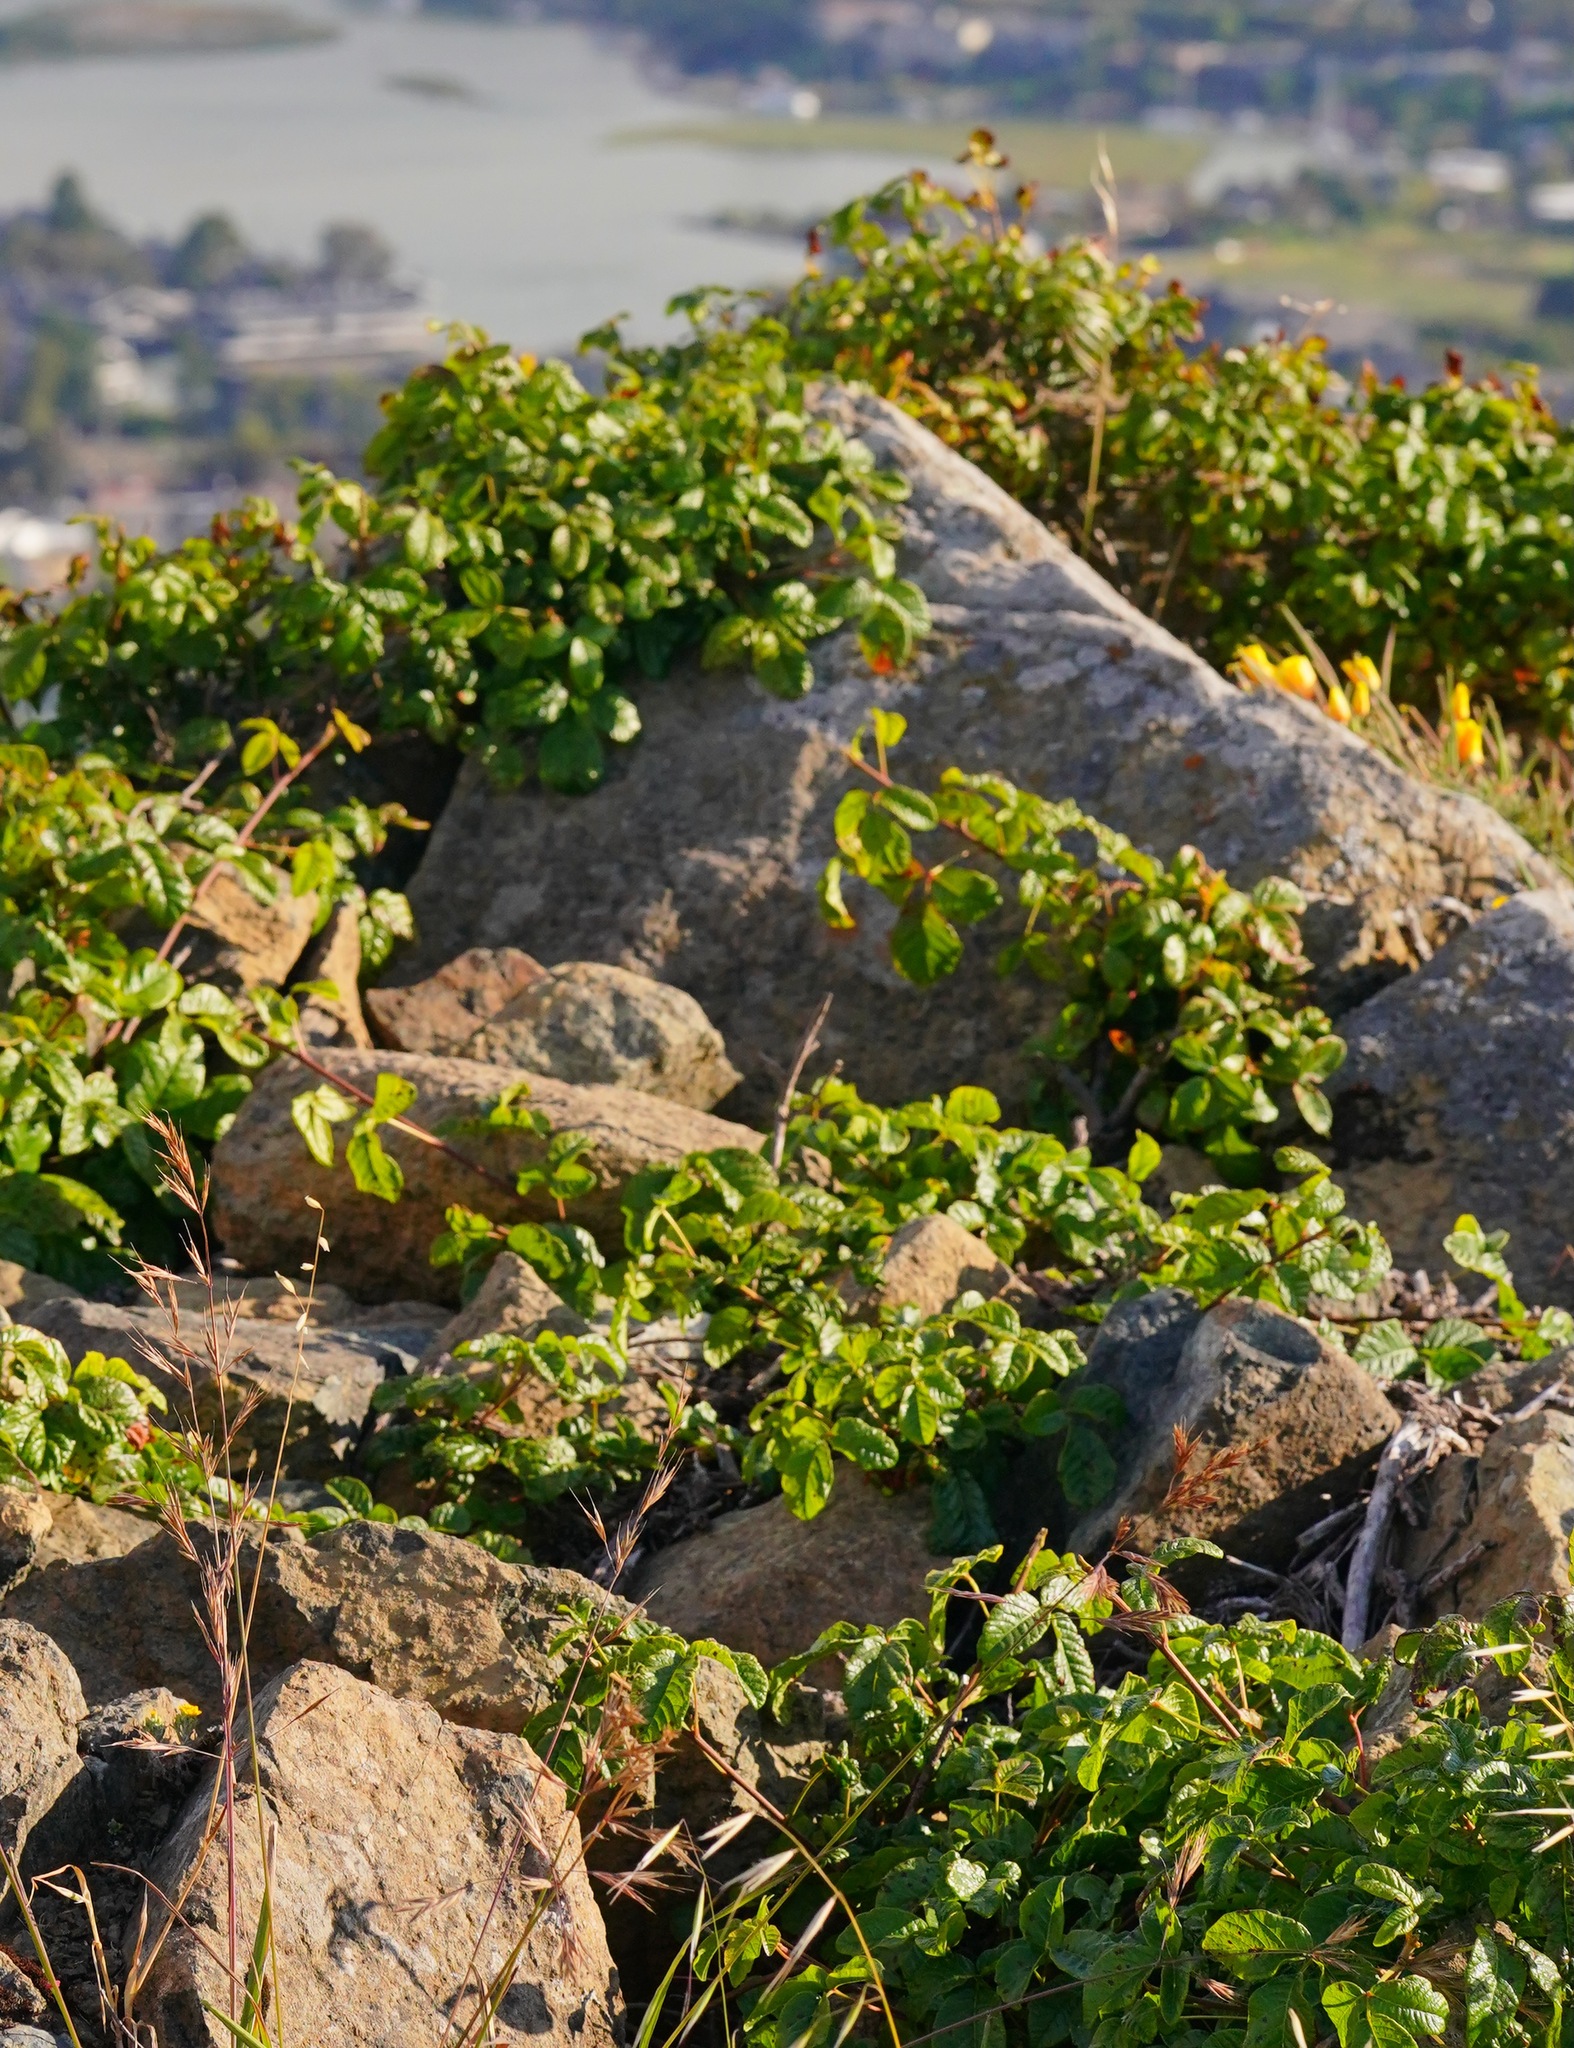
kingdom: Plantae
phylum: Tracheophyta
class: Magnoliopsida
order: Sapindales
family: Anacardiaceae
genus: Toxicodendron
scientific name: Toxicodendron diversilobum
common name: Pacific poison-oak
